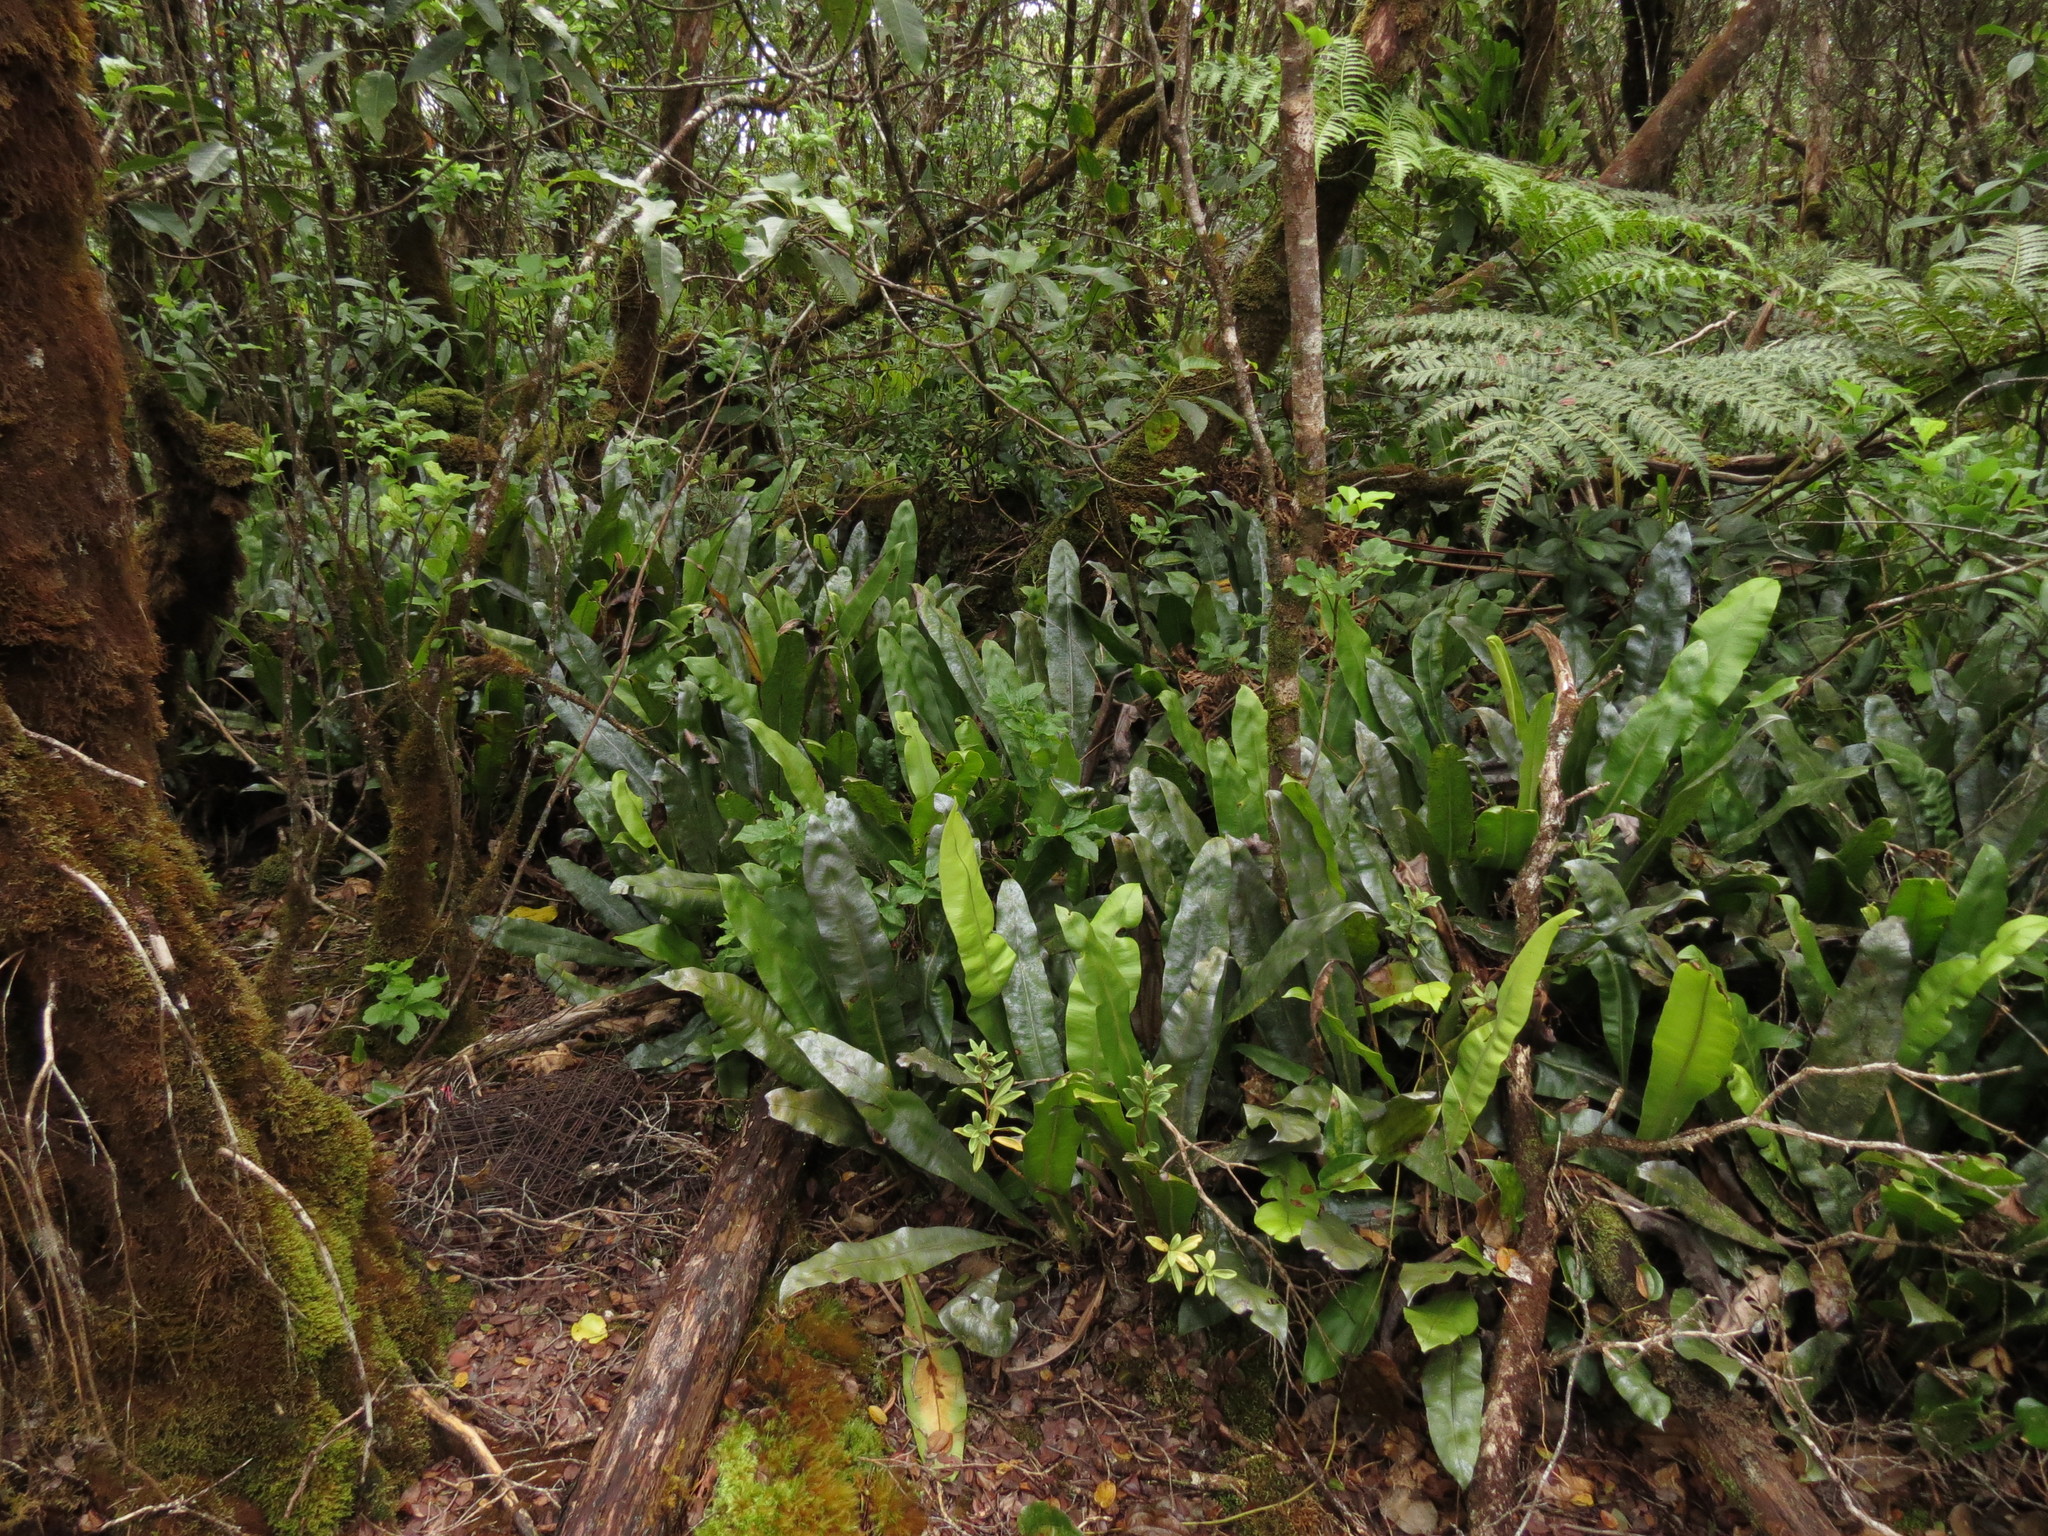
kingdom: Plantae
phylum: Tracheophyta
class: Polypodiopsida
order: Polypodiales
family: Dryopteridaceae
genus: Elaphoglossum
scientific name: Elaphoglossum crassicaule
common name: Maui's paddle
